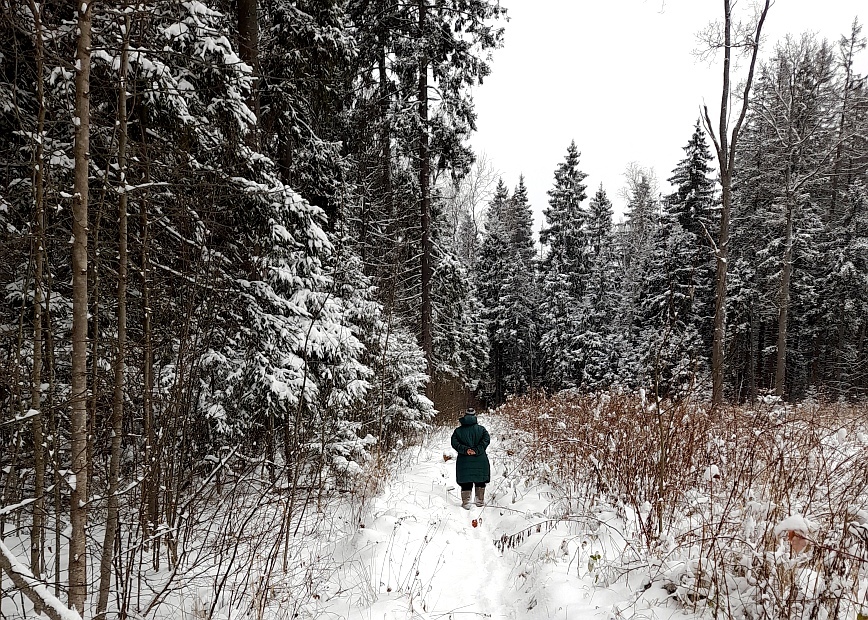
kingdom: Plantae
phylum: Tracheophyta
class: Pinopsida
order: Pinales
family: Pinaceae
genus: Picea
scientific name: Picea abies
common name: Norway spruce
